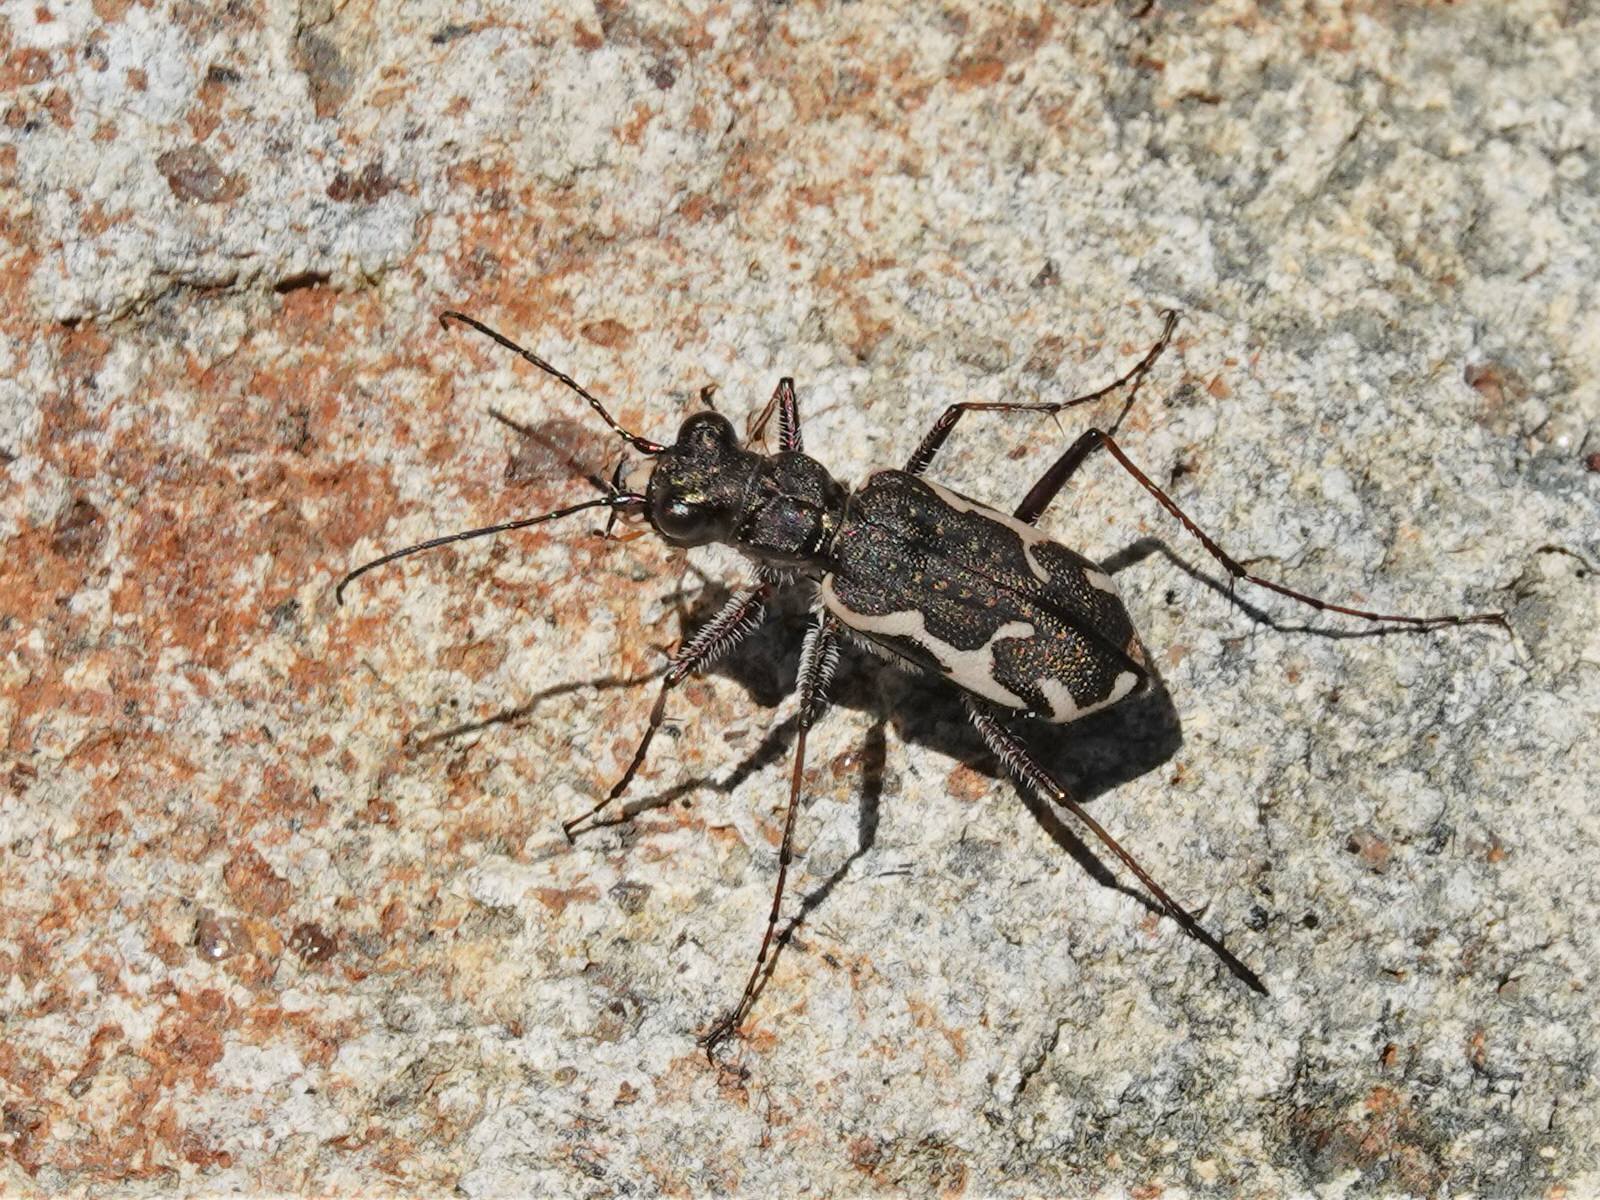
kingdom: Animalia
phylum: Arthropoda
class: Insecta
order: Coleoptera
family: Carabidae
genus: Neocicindela
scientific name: Neocicindela tuberculata
